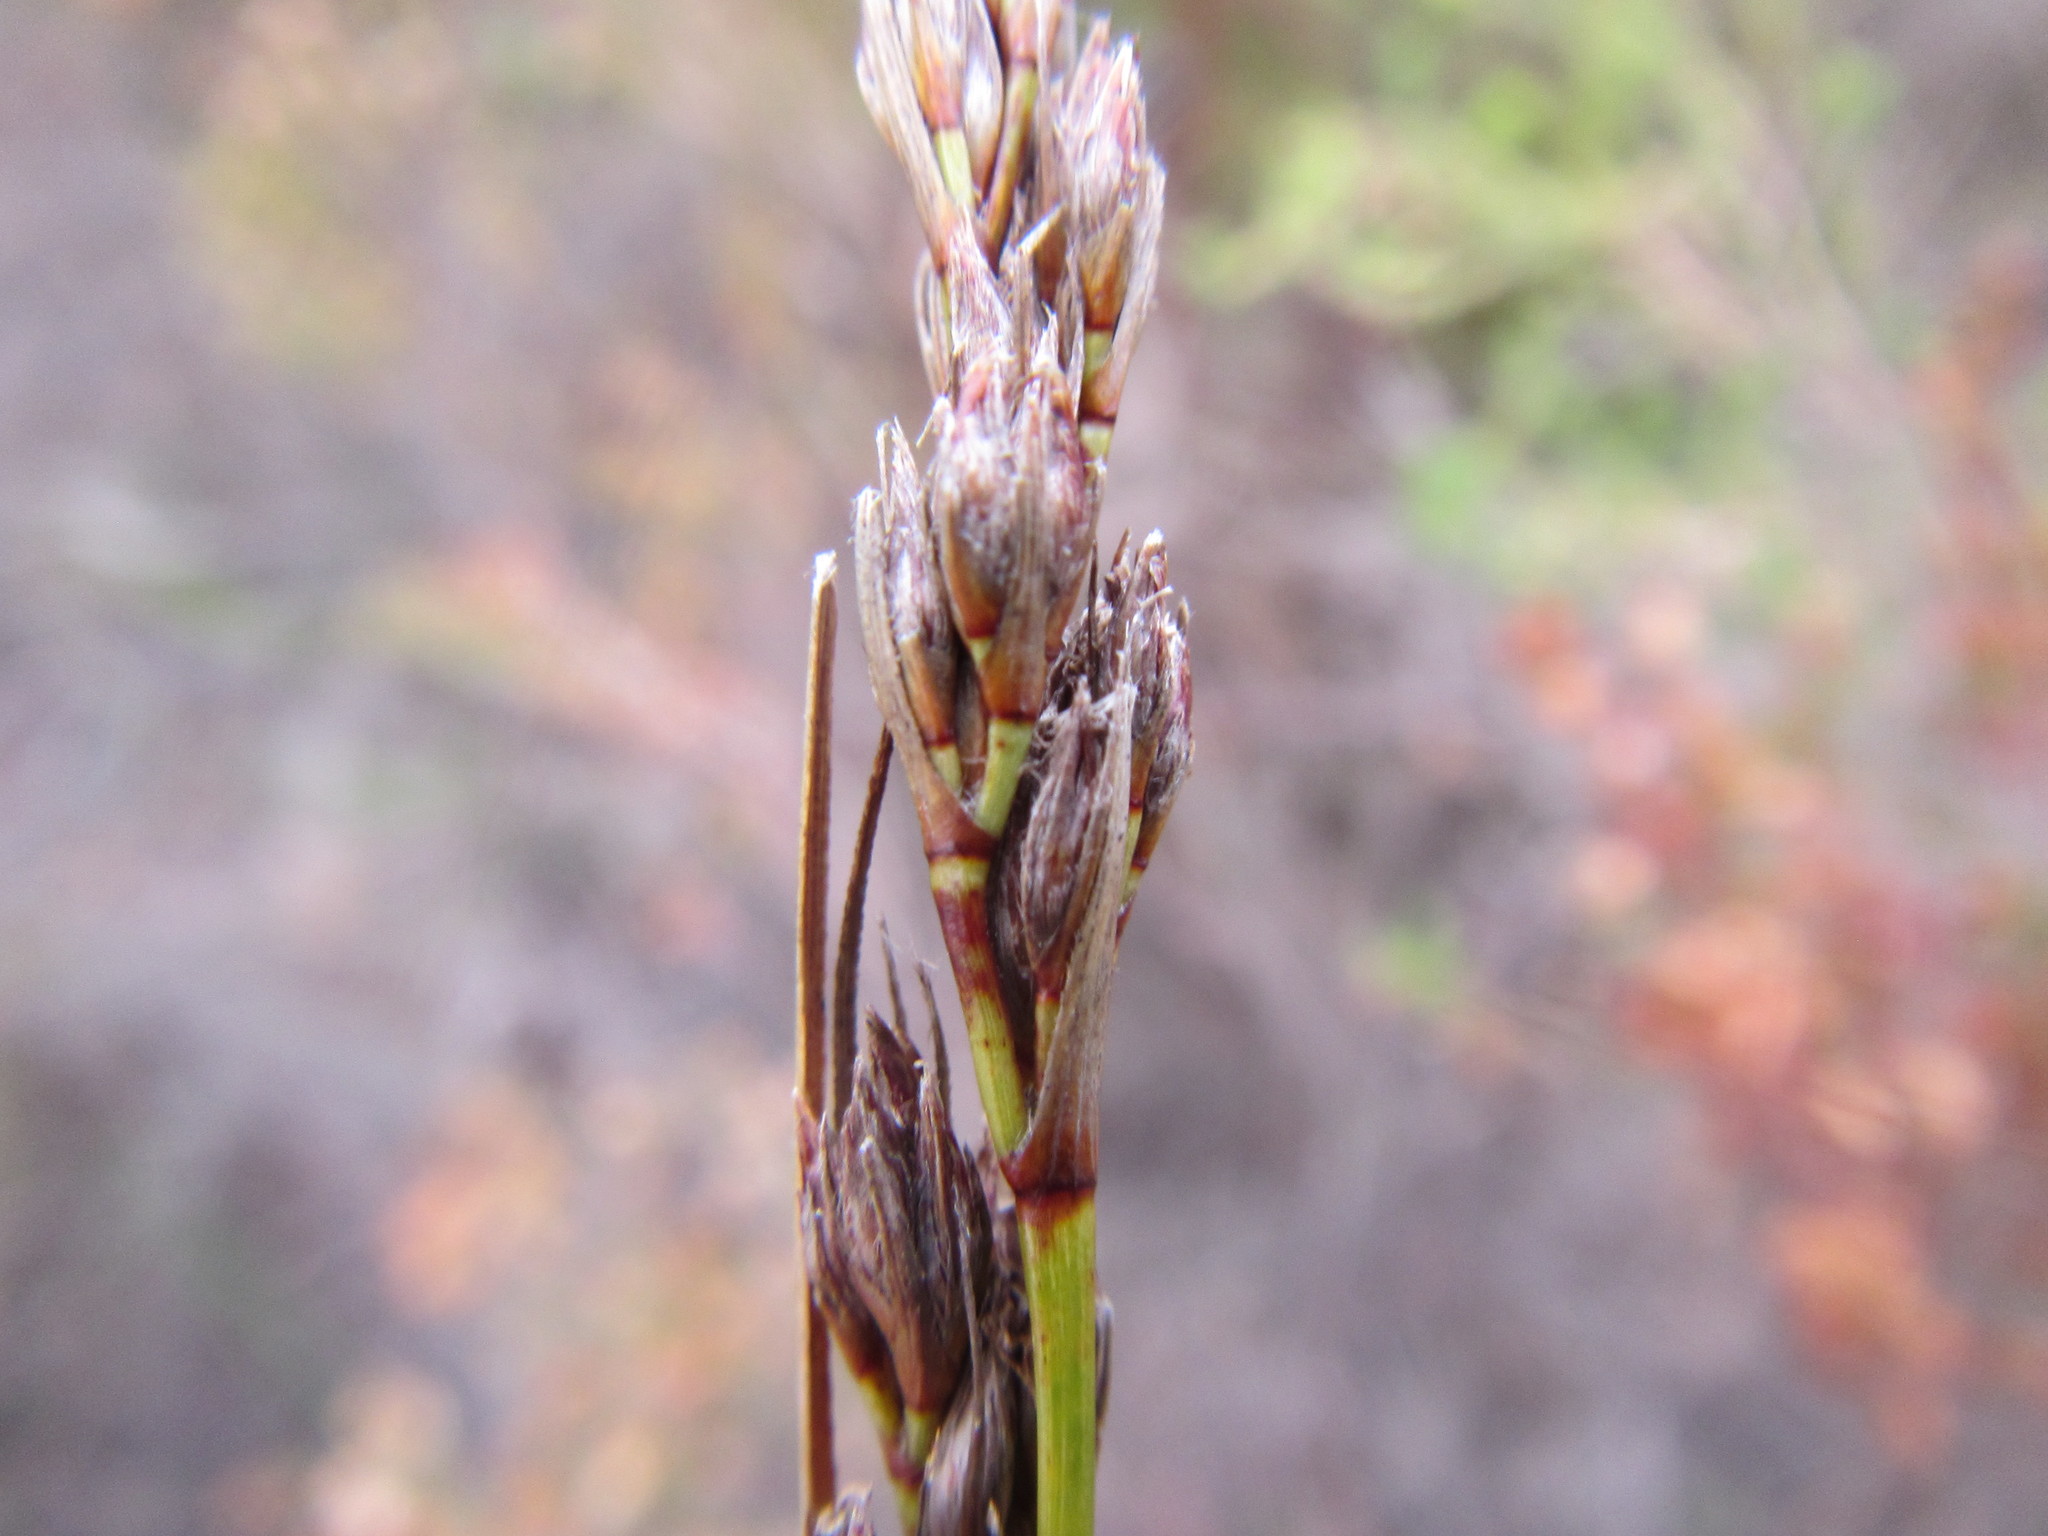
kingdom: Plantae
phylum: Tracheophyta
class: Liliopsida
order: Poales
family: Cyperaceae
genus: Schoenus
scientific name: Schoenus cuspidatus
